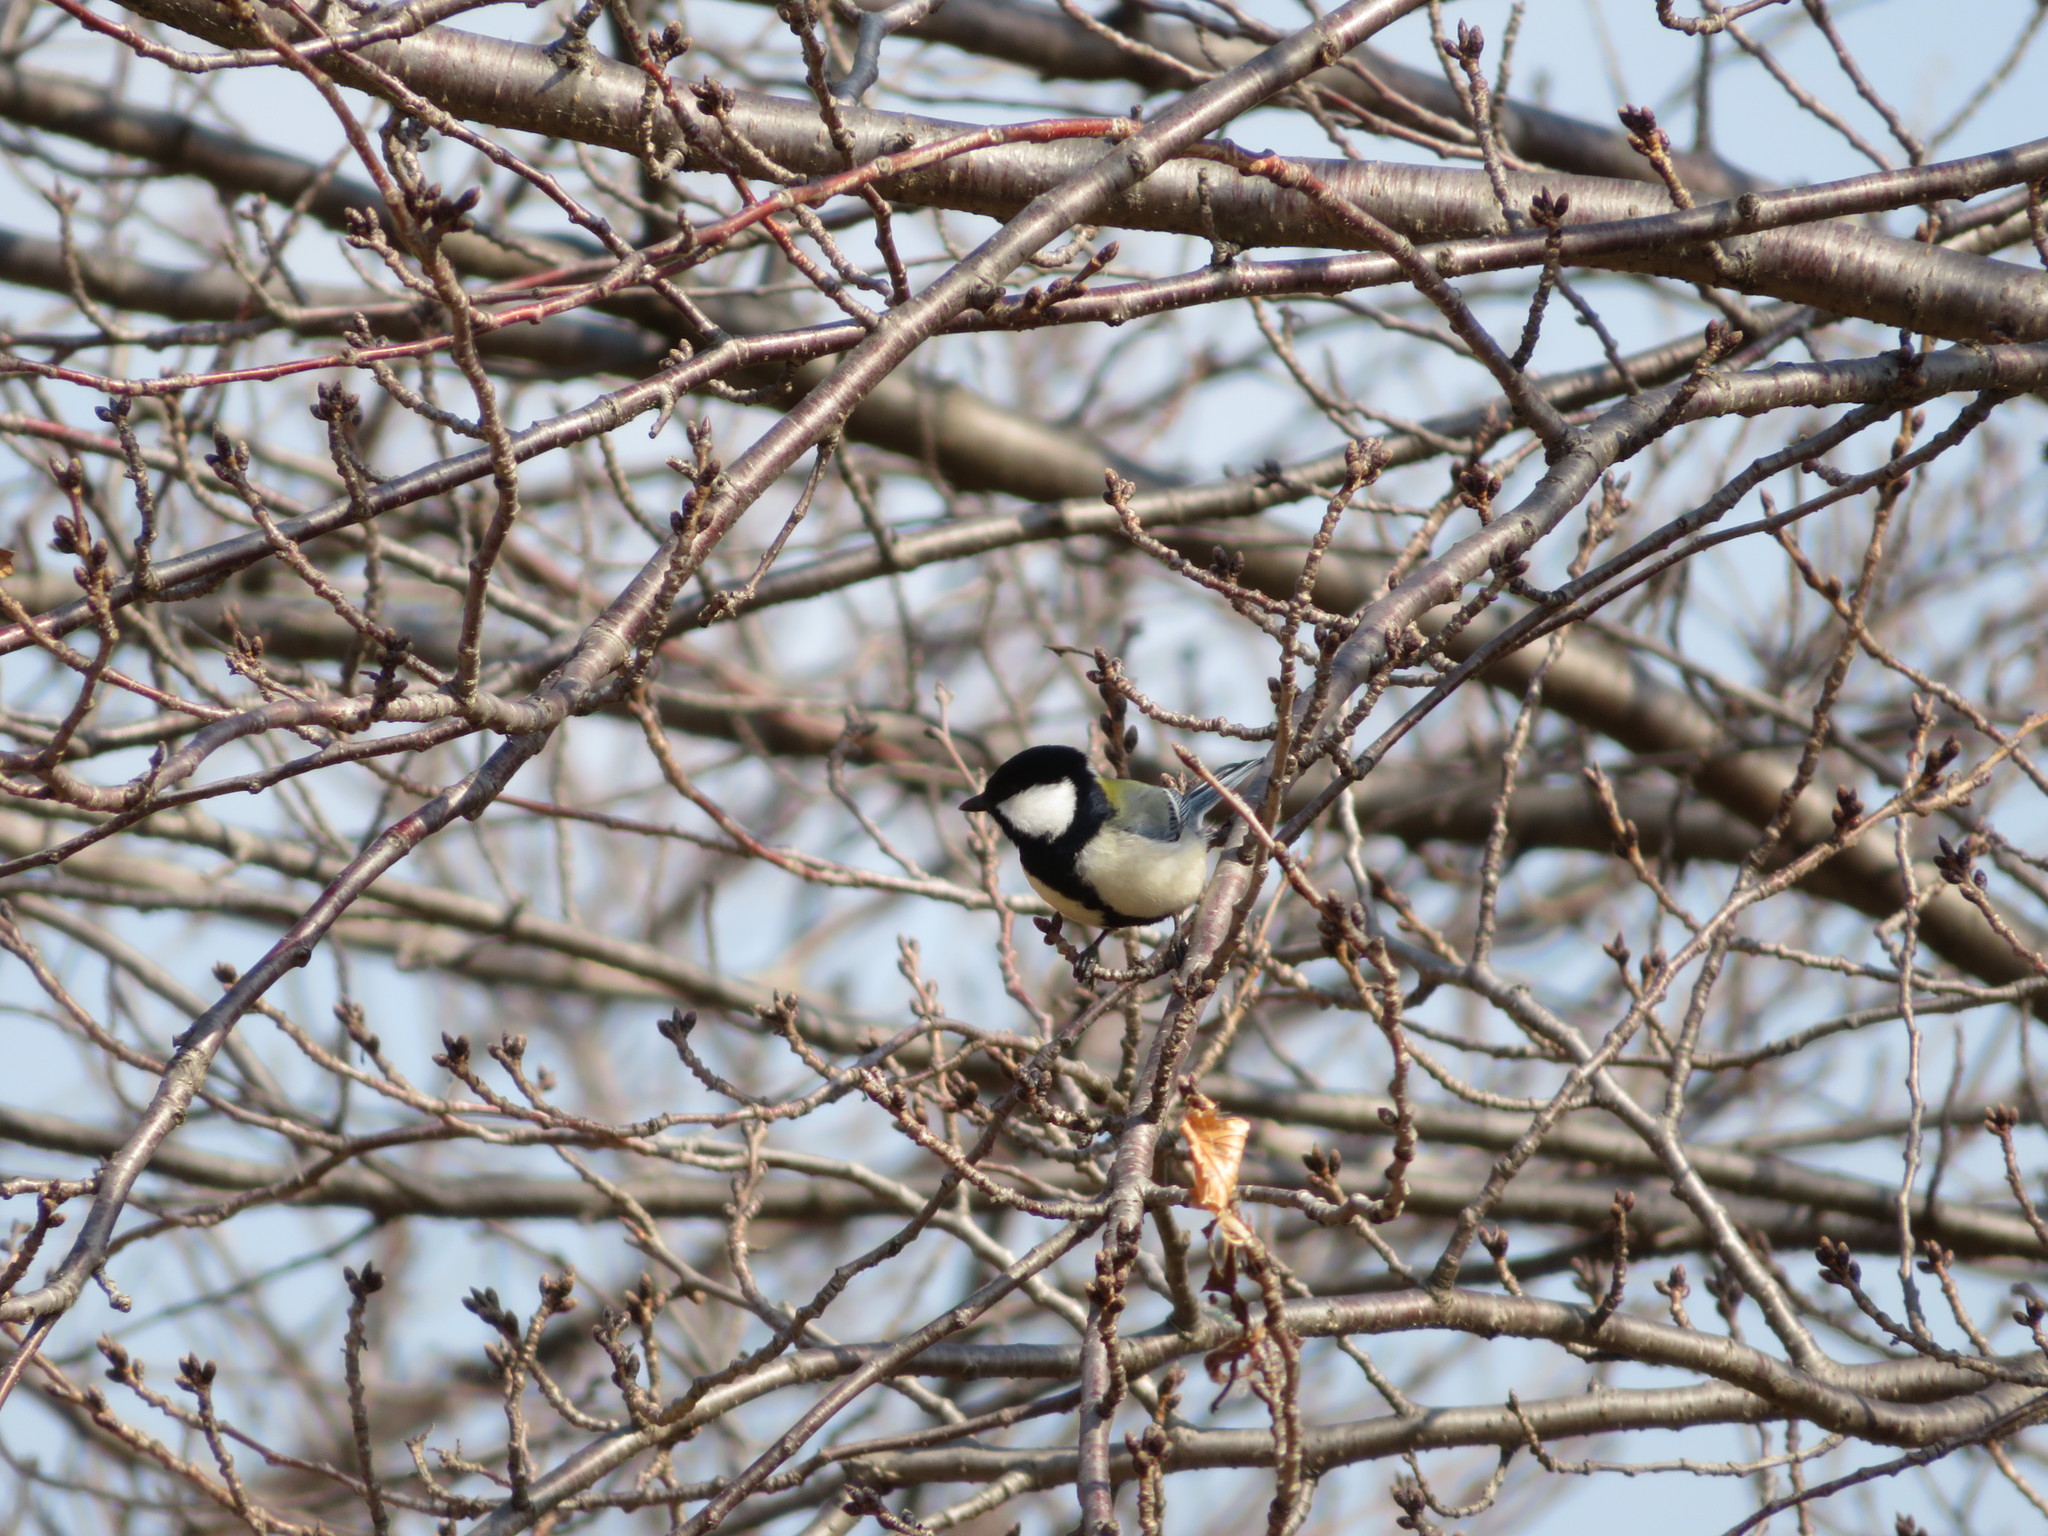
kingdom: Animalia
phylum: Chordata
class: Aves
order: Passeriformes
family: Paridae
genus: Parus
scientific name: Parus minor
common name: Japanese tit
